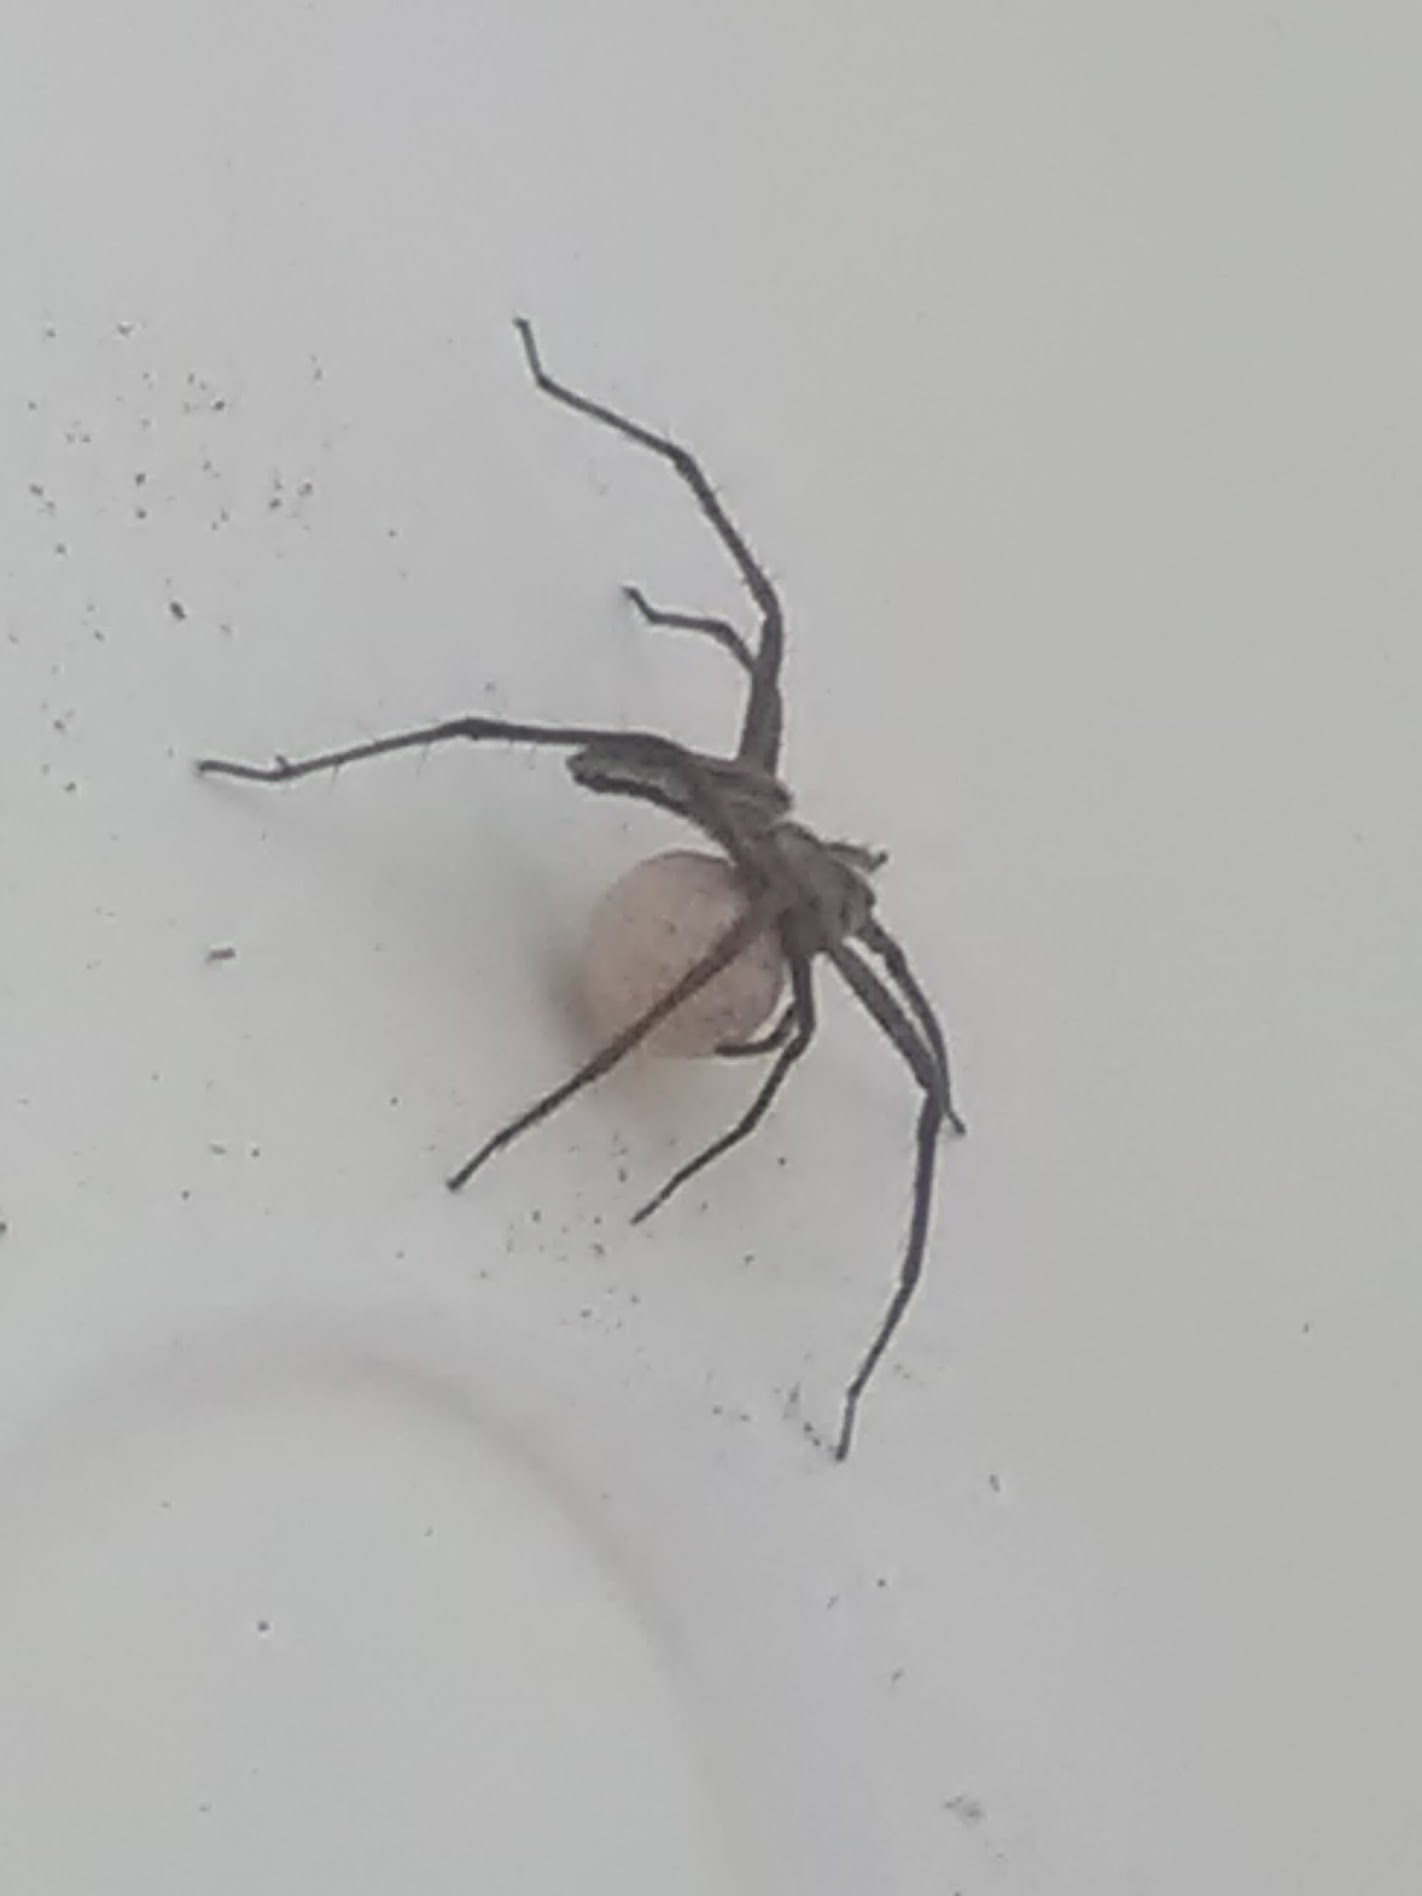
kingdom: Animalia
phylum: Arthropoda
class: Arachnida
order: Araneae
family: Pisauridae
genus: Pisaura
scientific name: Pisaura mirabilis
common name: Tent spider
